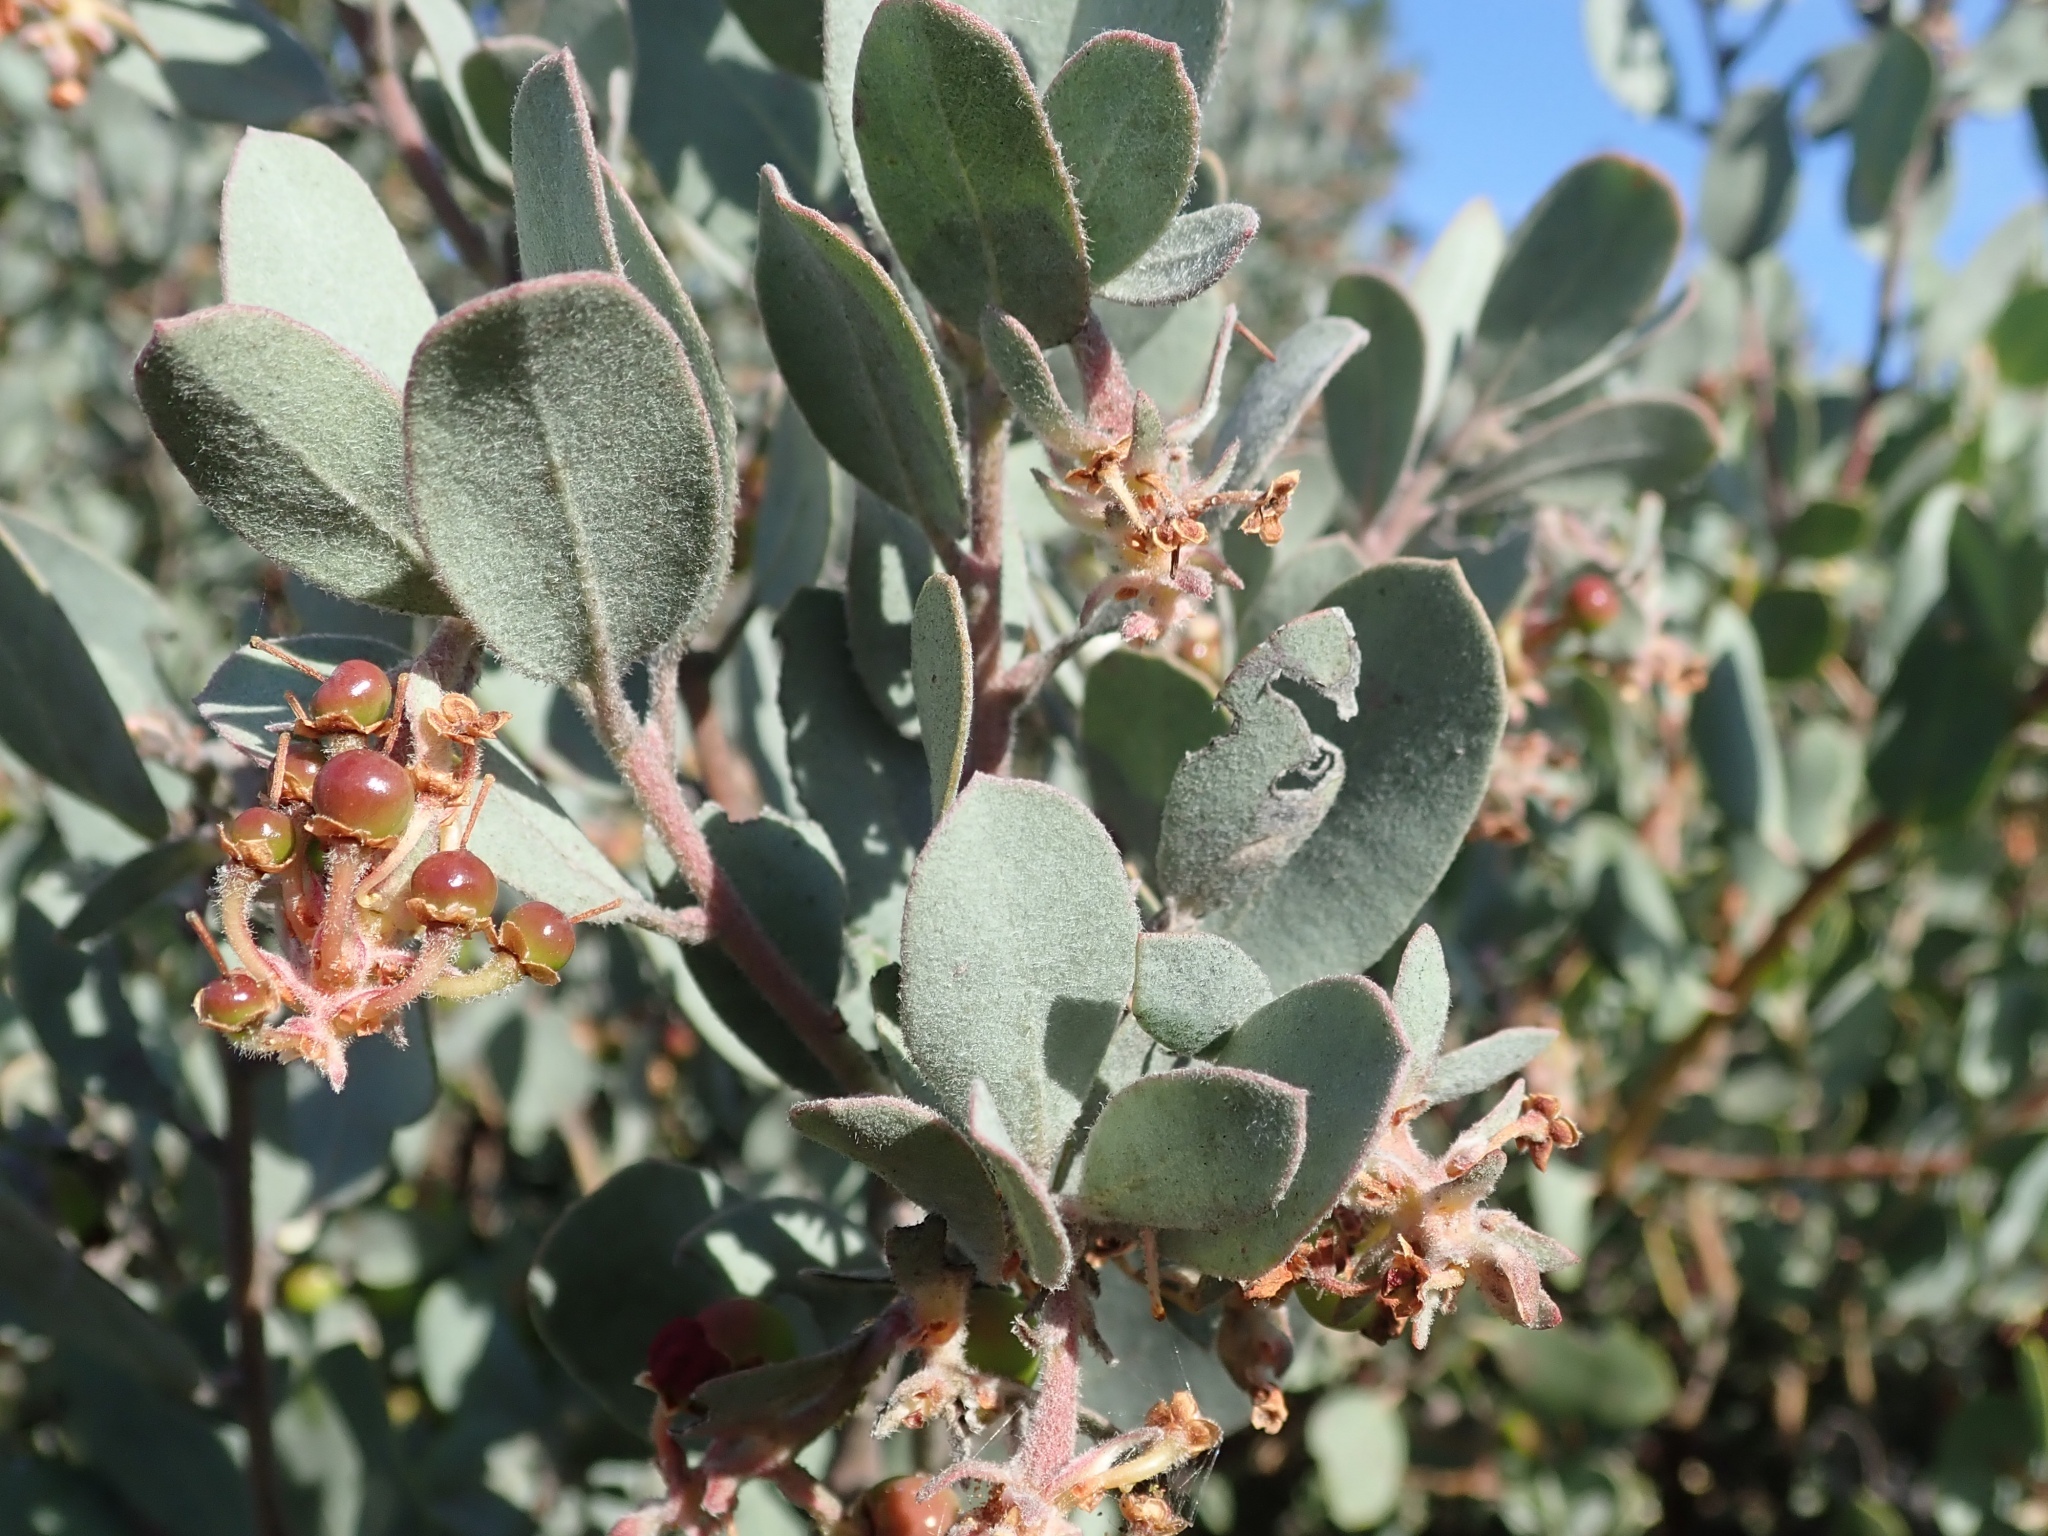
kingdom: Plantae
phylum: Tracheophyta
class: Magnoliopsida
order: Ericales
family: Ericaceae
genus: Arctostaphylos
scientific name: Arctostaphylos silvicola
